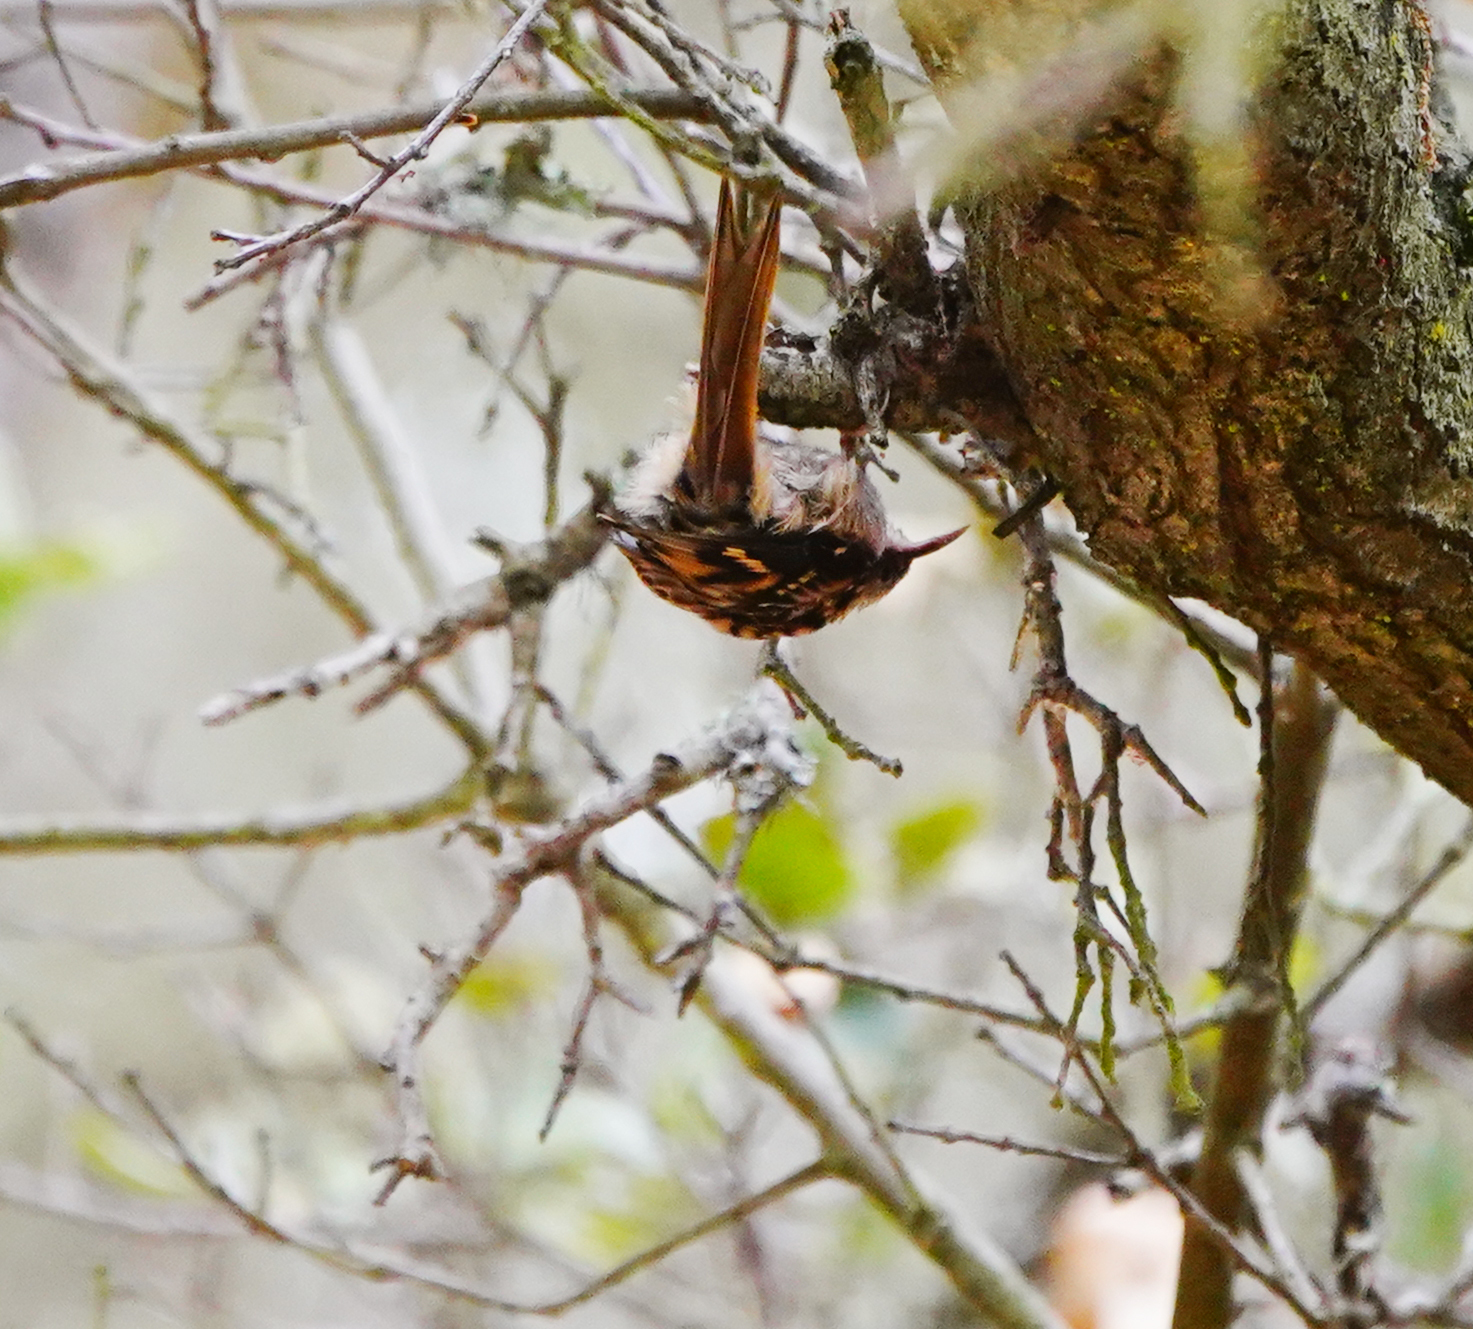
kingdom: Animalia
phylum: Chordata
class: Aves
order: Passeriformes
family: Certhiidae
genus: Certhia
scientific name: Certhia americana
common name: Brown creeper
